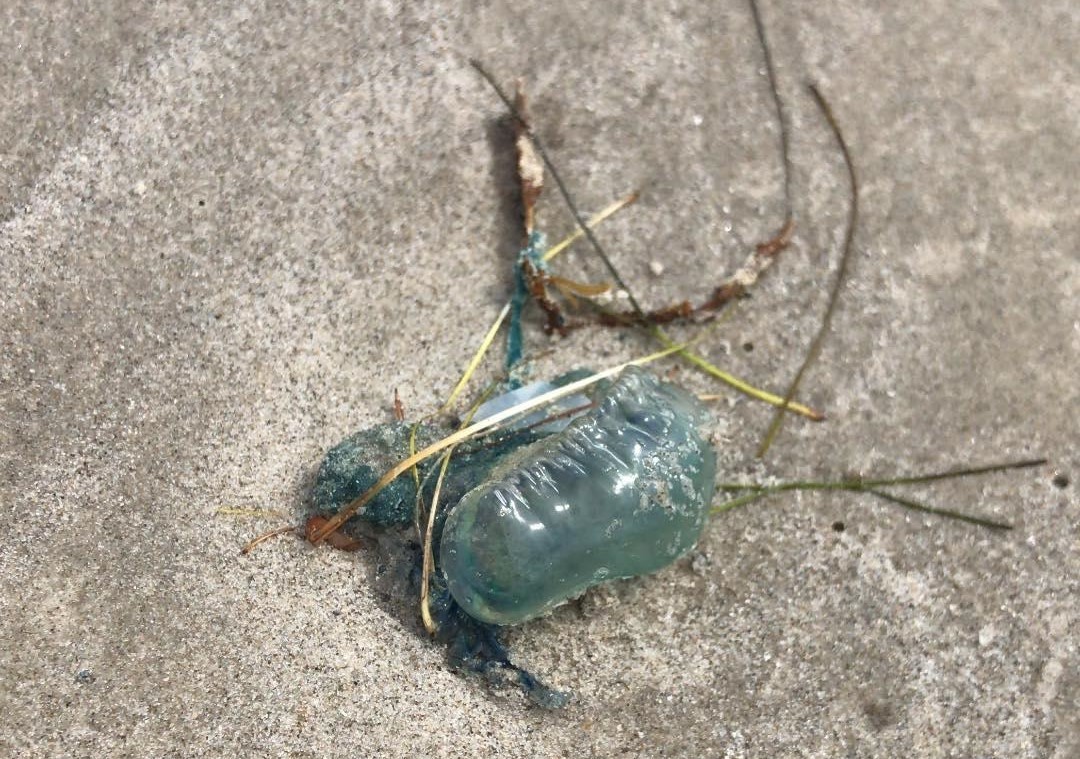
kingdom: Animalia
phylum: Cnidaria
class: Hydrozoa
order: Siphonophorae
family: Physaliidae
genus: Physalia
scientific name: Physalia physalis
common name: Portuguese man-of-war
